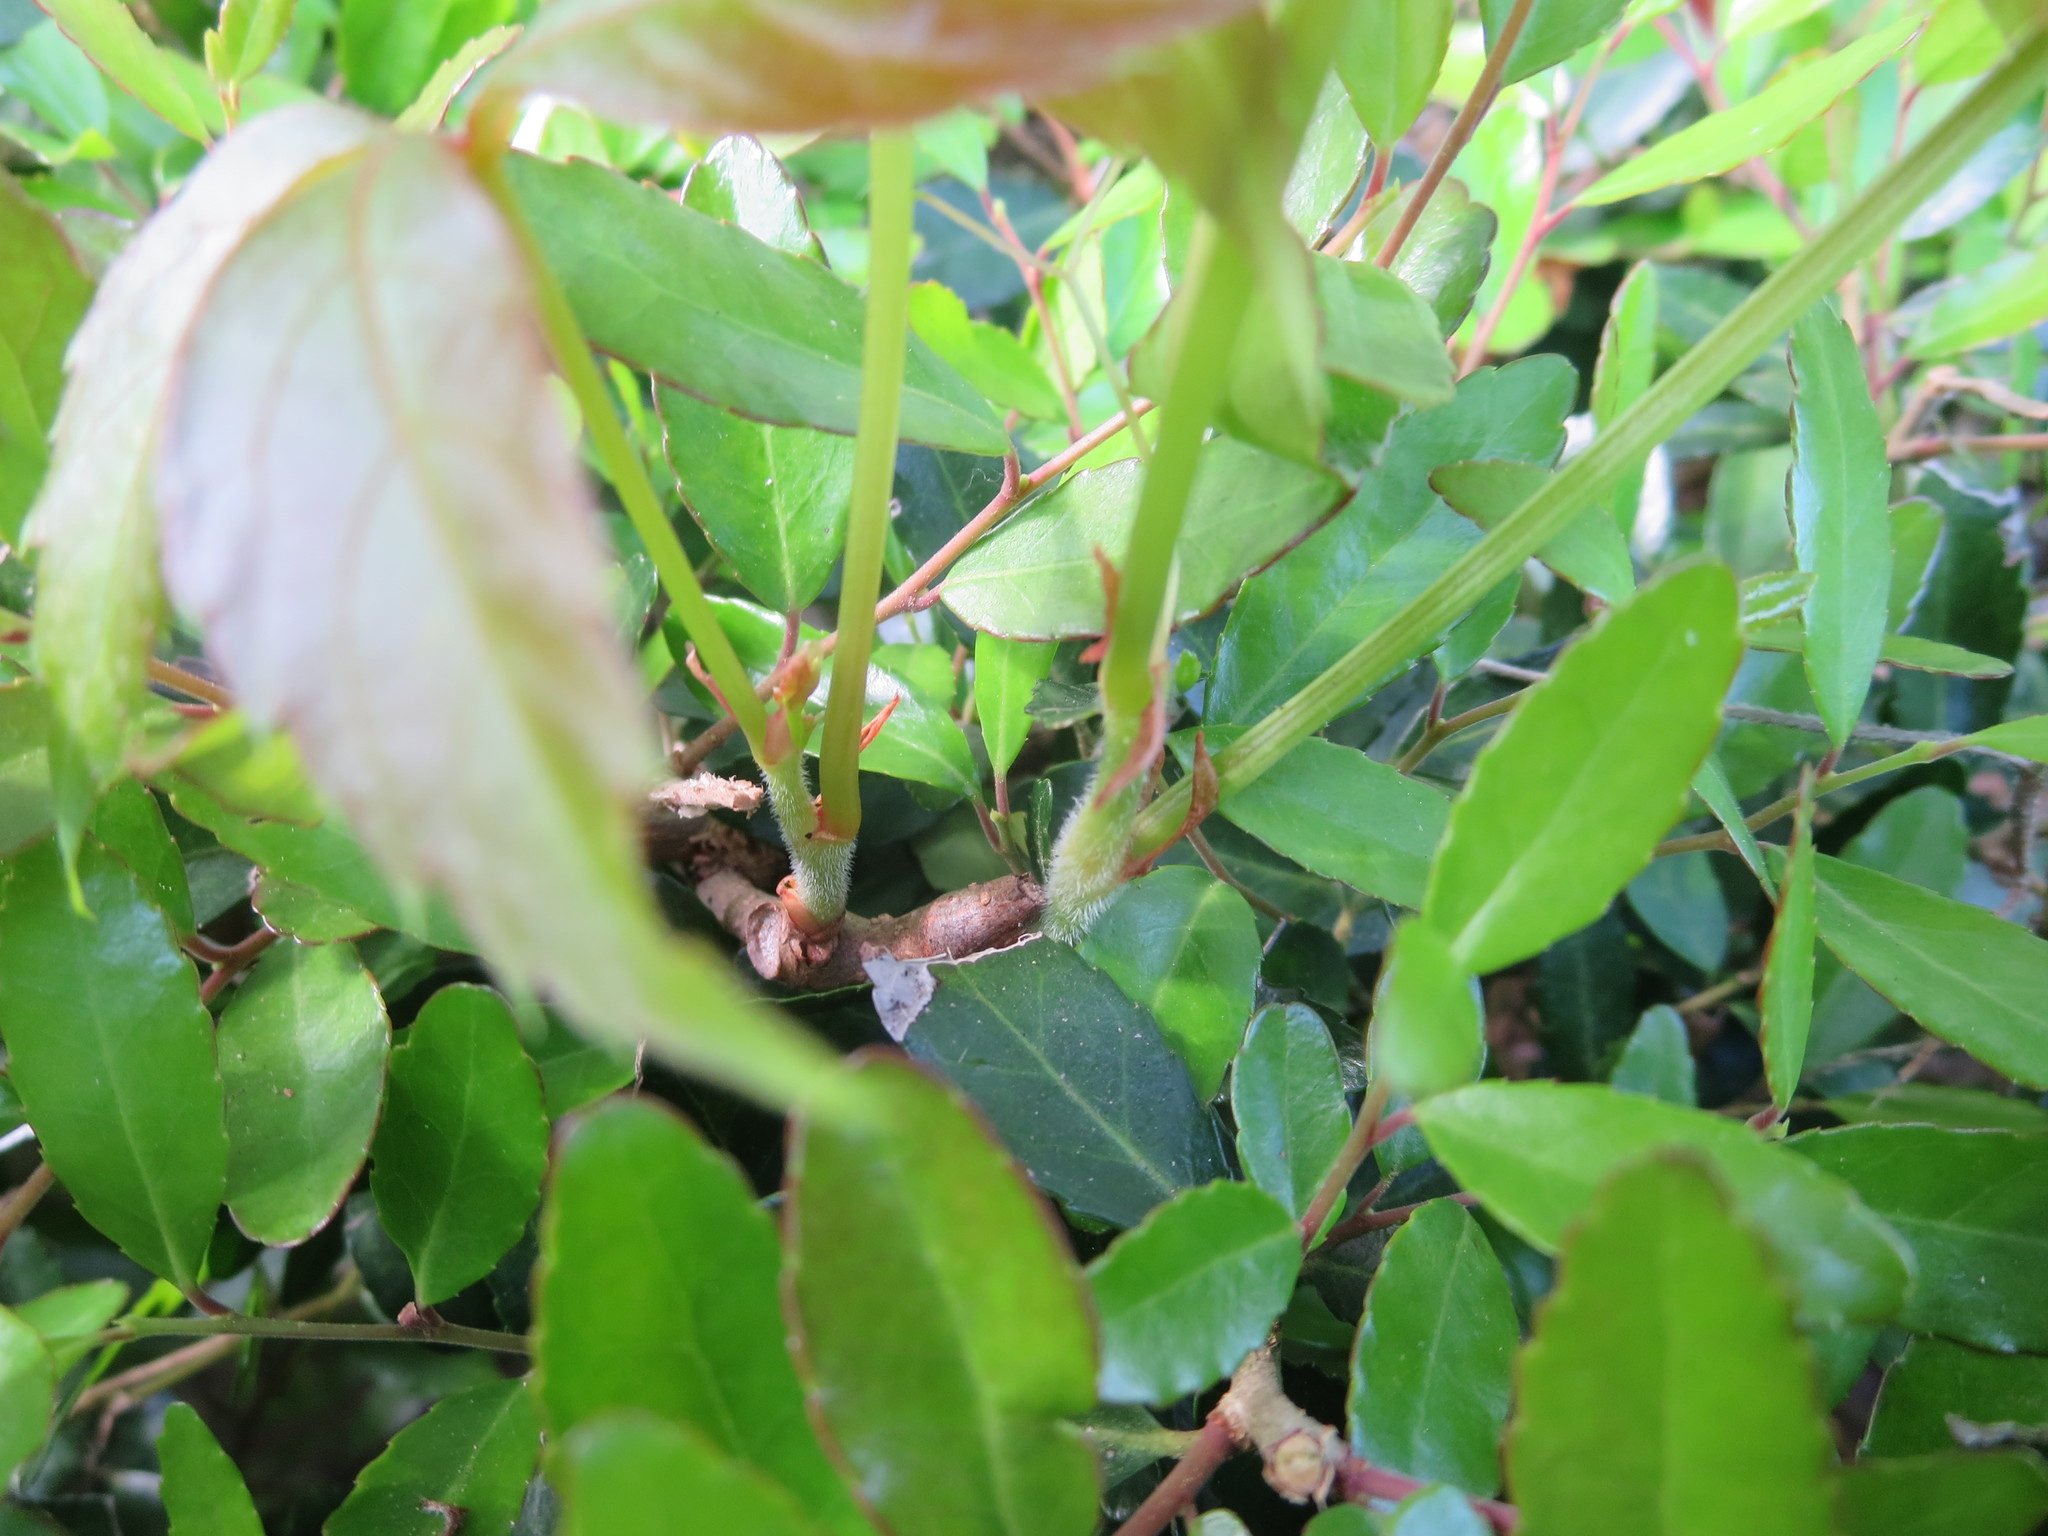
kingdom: Plantae
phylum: Tracheophyta
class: Magnoliopsida
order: Vitales
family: Vitaceae
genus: Parthenocissus
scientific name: Parthenocissus quinquefolia
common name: Virginia-creeper
